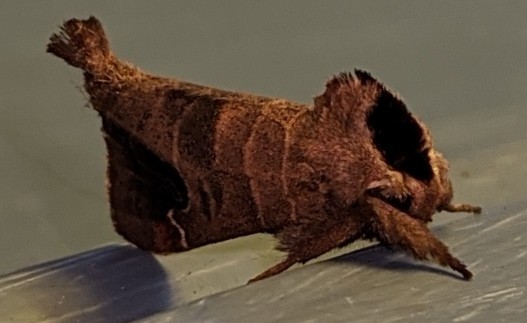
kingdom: Animalia
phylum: Arthropoda
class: Insecta
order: Lepidoptera
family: Notodontidae
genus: Clostera
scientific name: Clostera albosigma
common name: Sigmoid prominent
